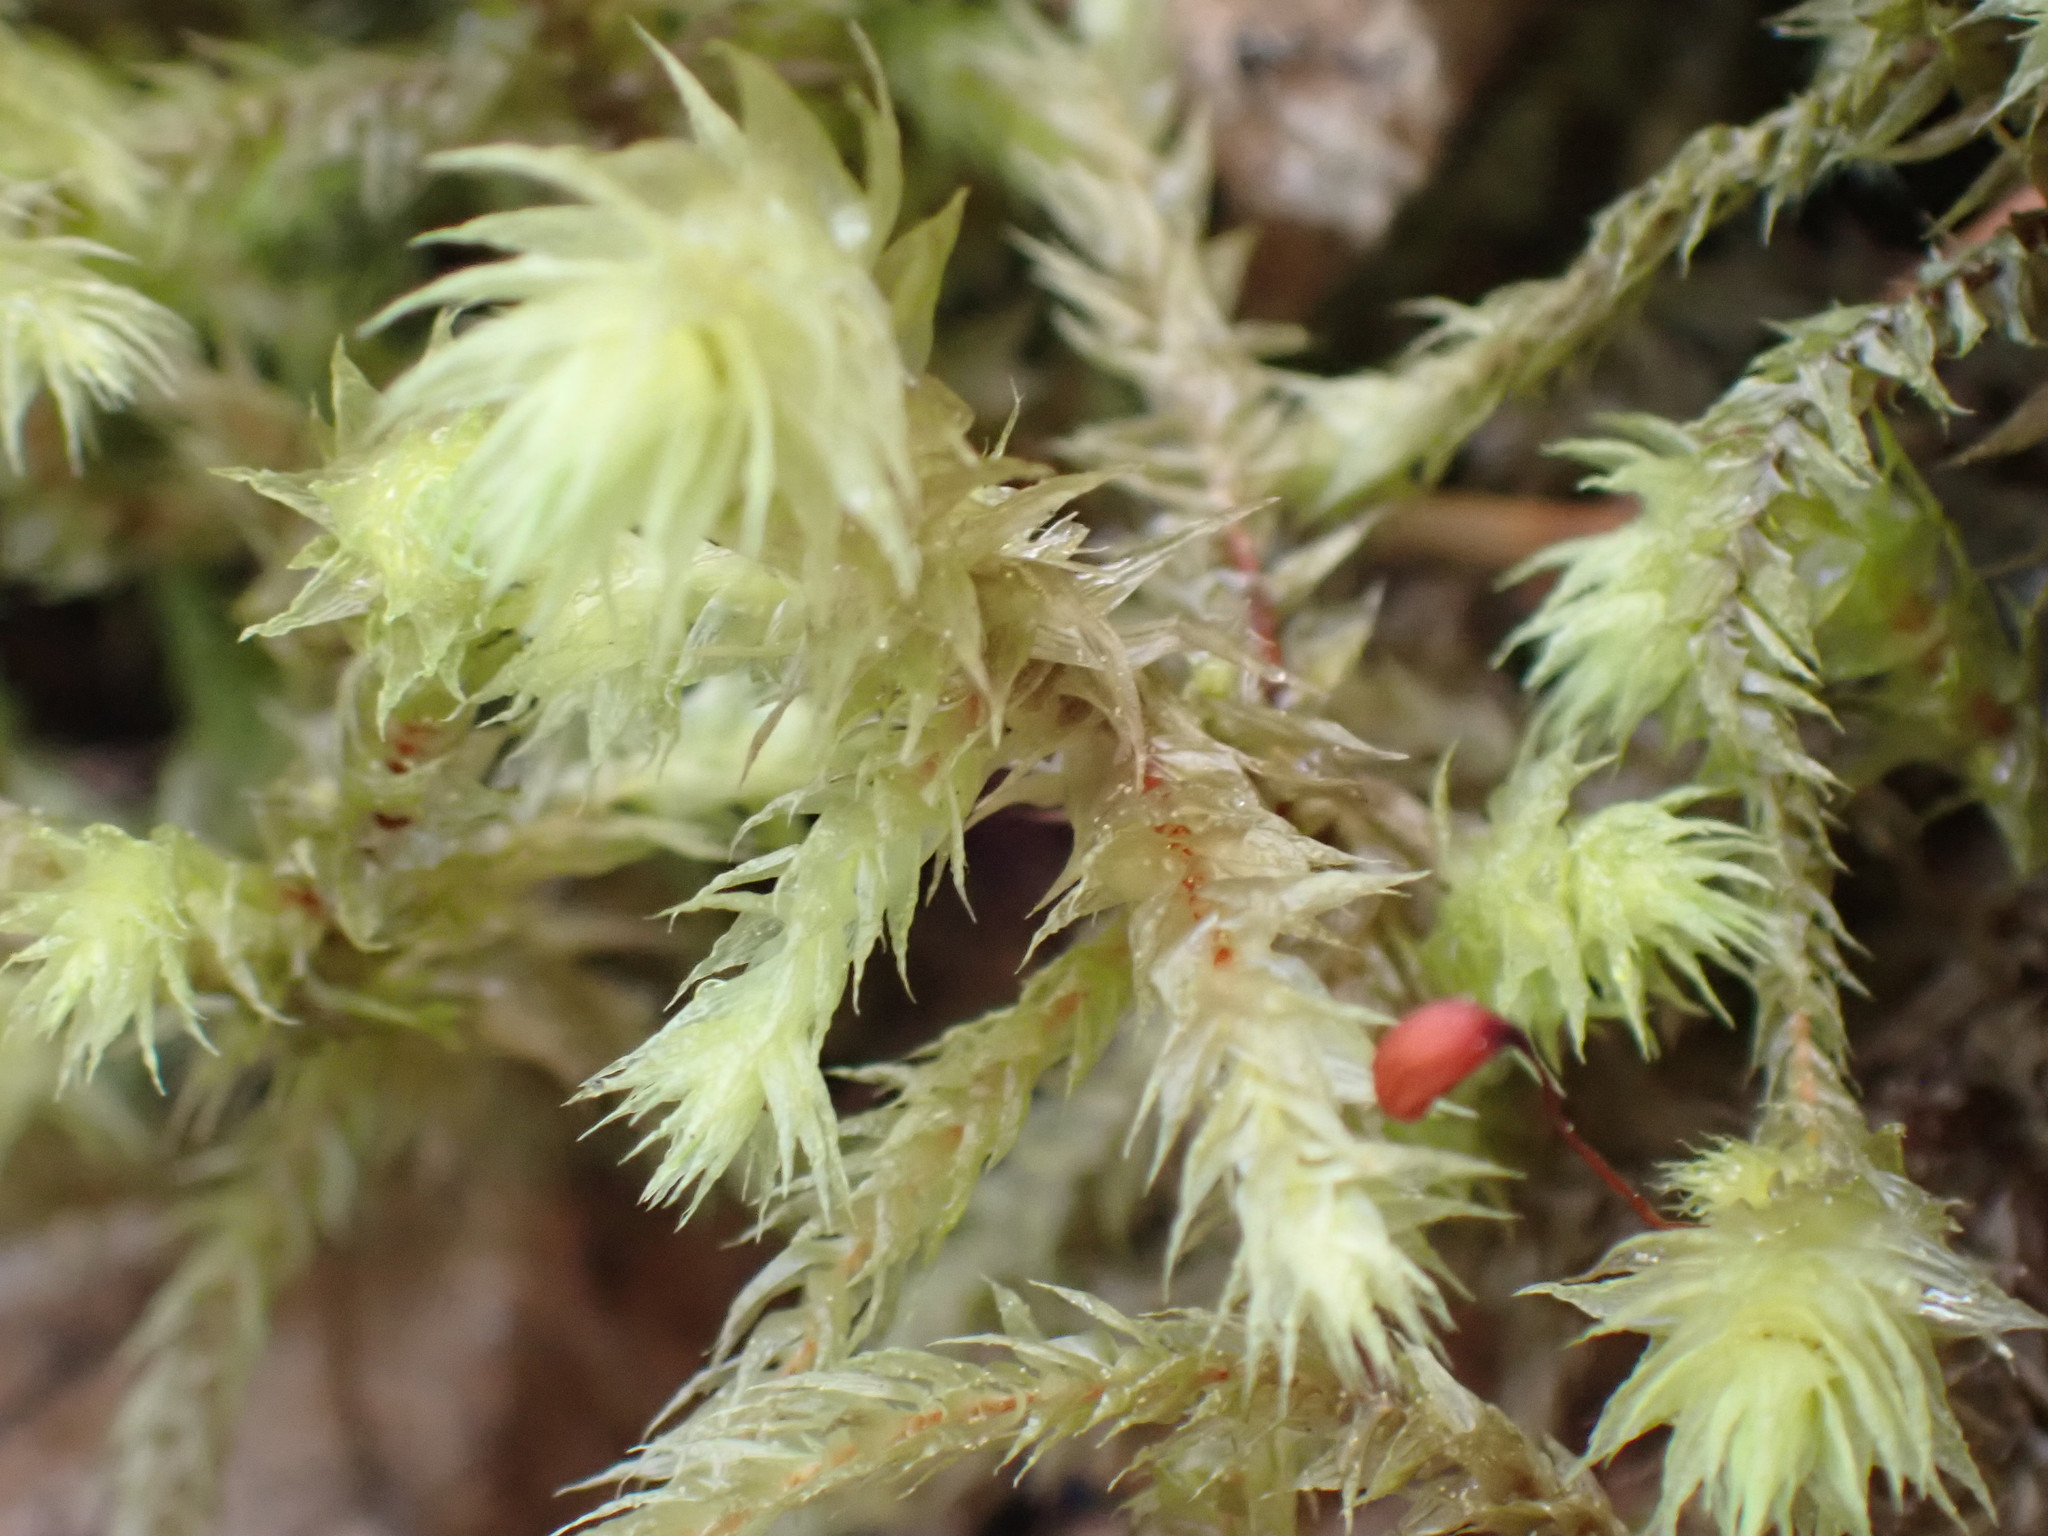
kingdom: Plantae
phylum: Bryophyta
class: Bryopsida
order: Hypnales
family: Hylocomiaceae
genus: Hylocomiadelphus
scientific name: Hylocomiadelphus triquetrus
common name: Rough goose neck moss
